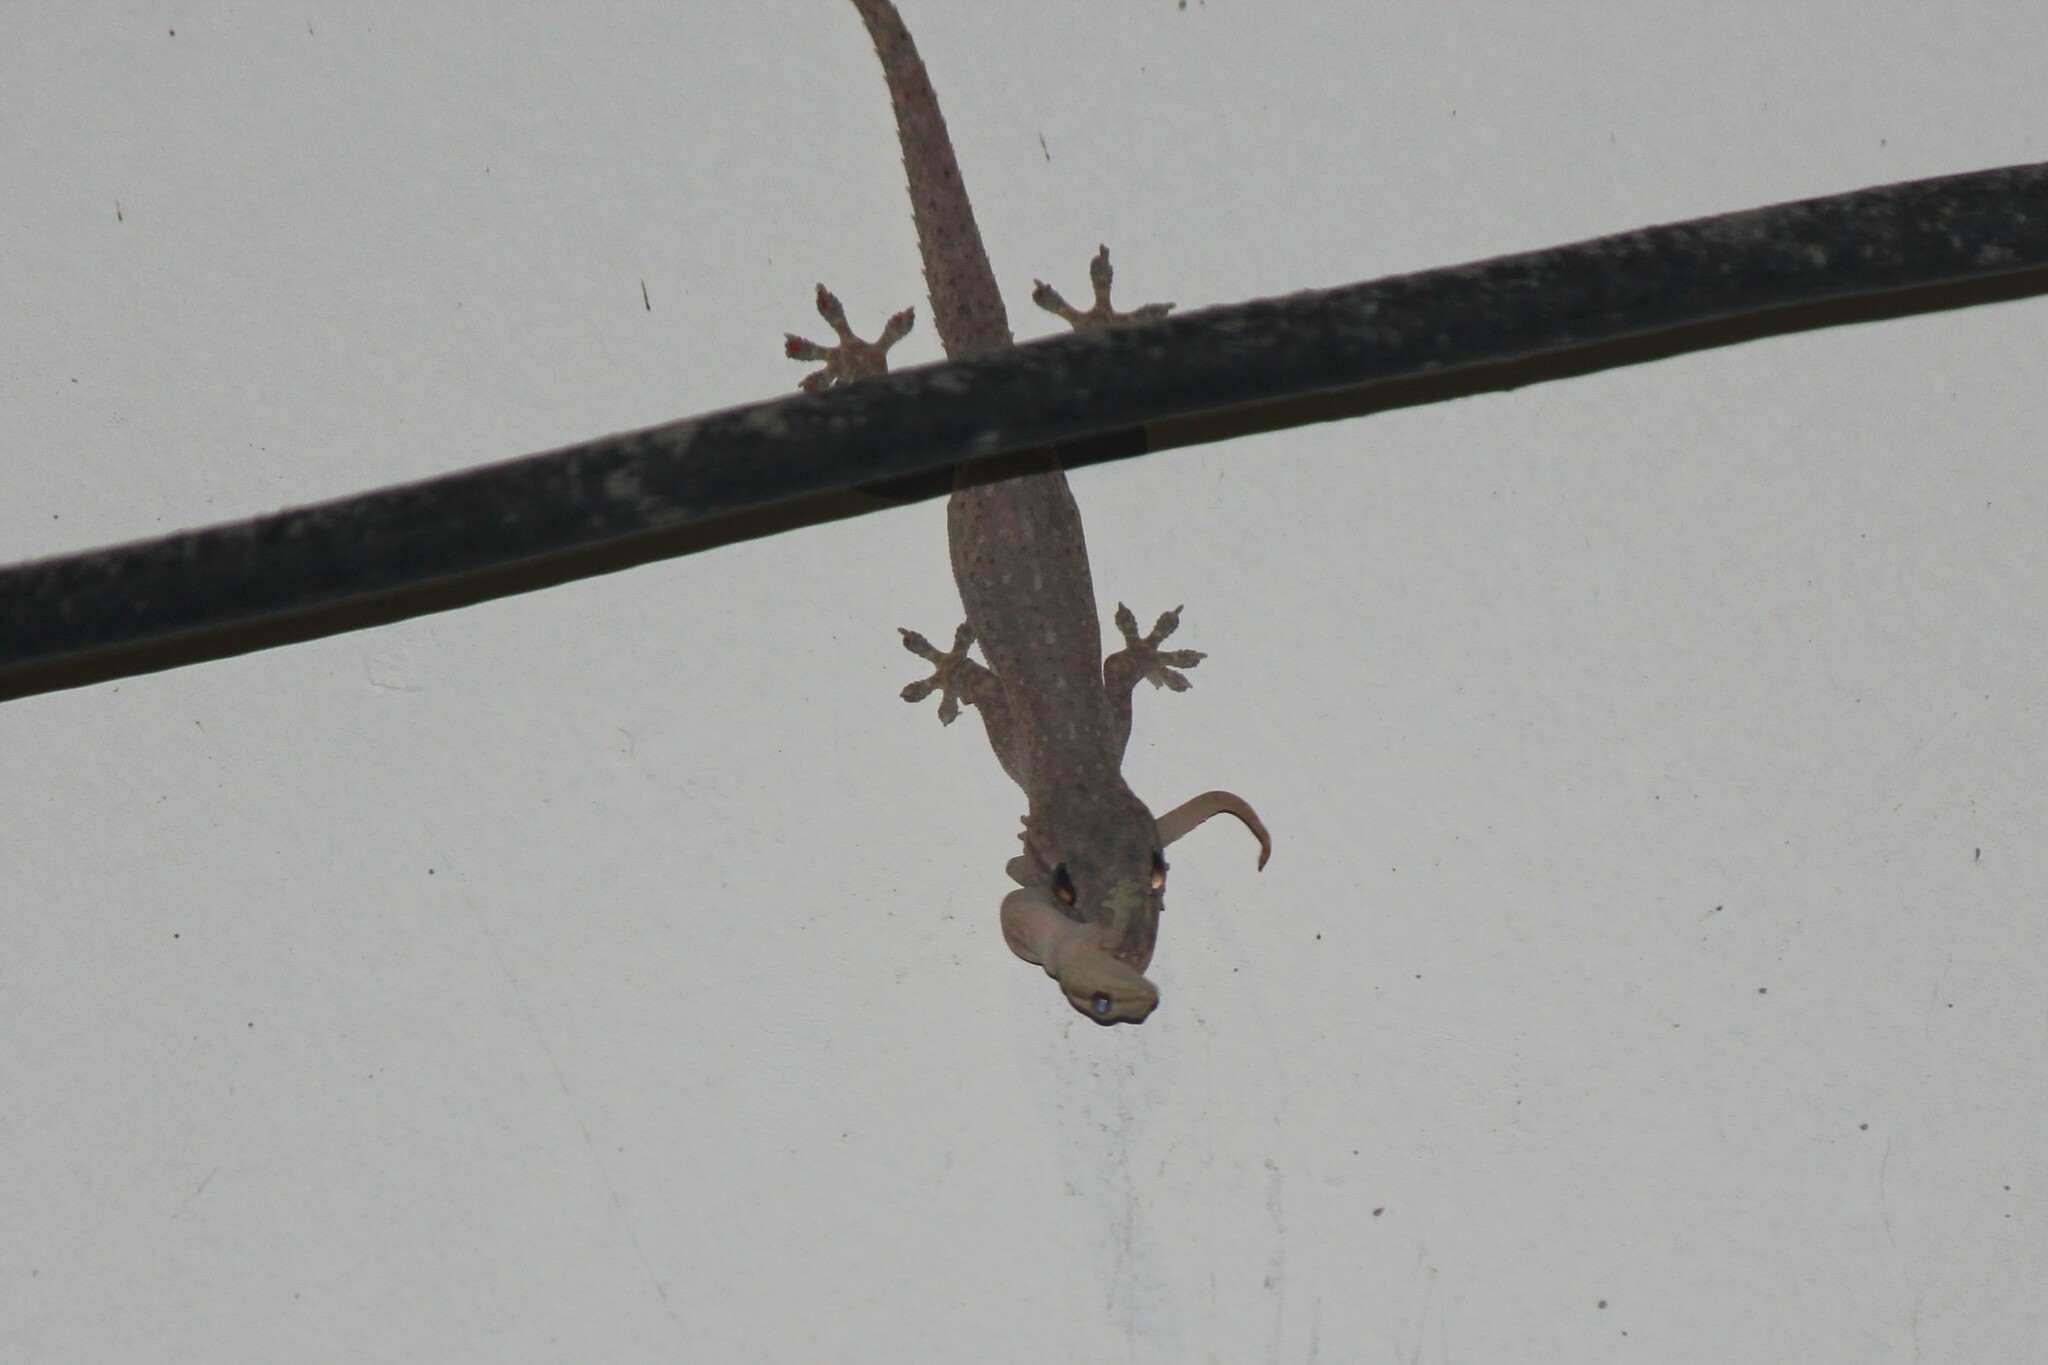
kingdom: Animalia
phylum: Chordata
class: Squamata
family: Gekkonidae
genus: Hemidactylus
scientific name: Hemidactylus frenatus
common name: Common house gecko
